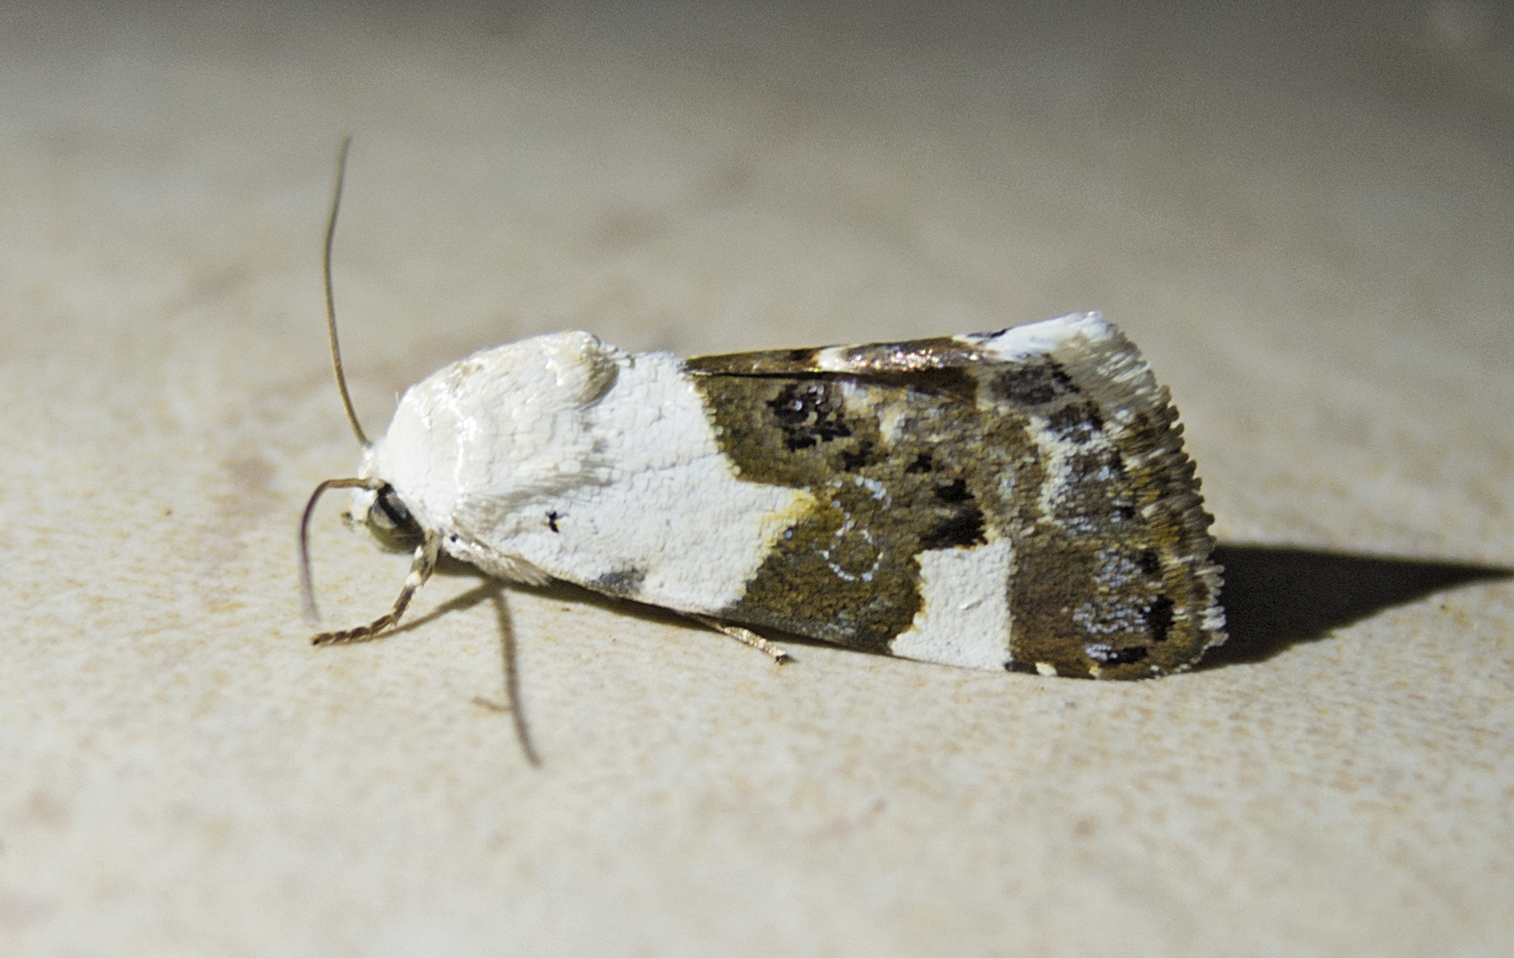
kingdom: Animalia
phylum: Arthropoda
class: Insecta
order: Lepidoptera
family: Noctuidae
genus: Acontia
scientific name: Acontia lucida
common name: Pale shoulder
